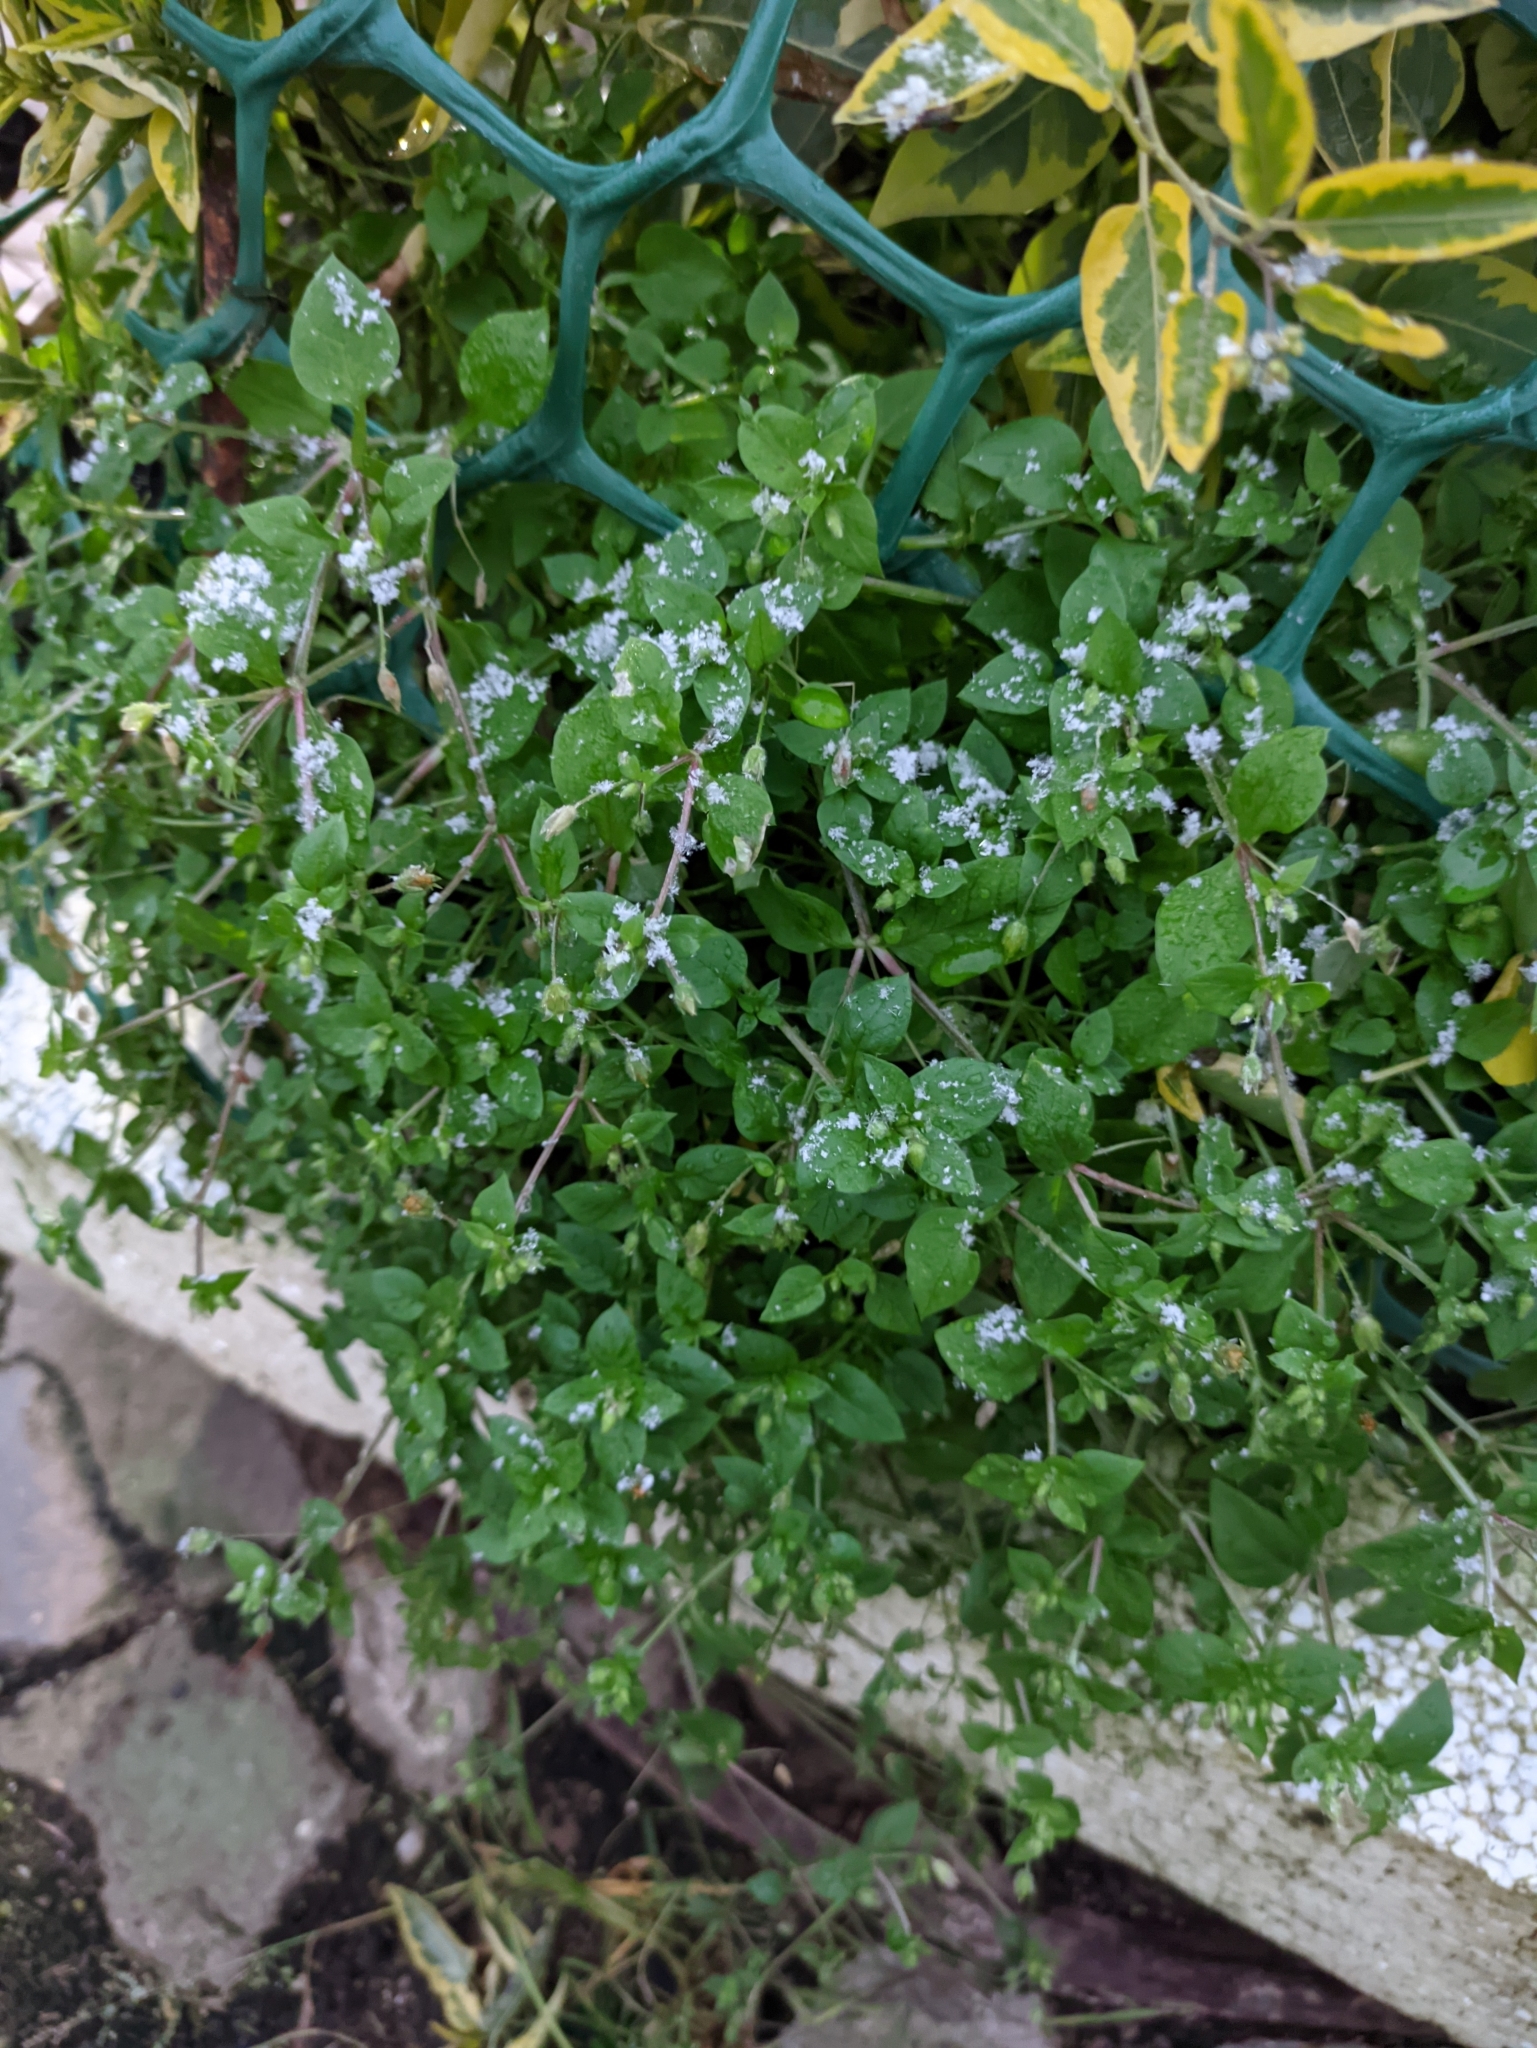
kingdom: Plantae
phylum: Tracheophyta
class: Magnoliopsida
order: Caryophyllales
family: Caryophyllaceae
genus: Stellaria
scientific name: Stellaria media
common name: Common chickweed
